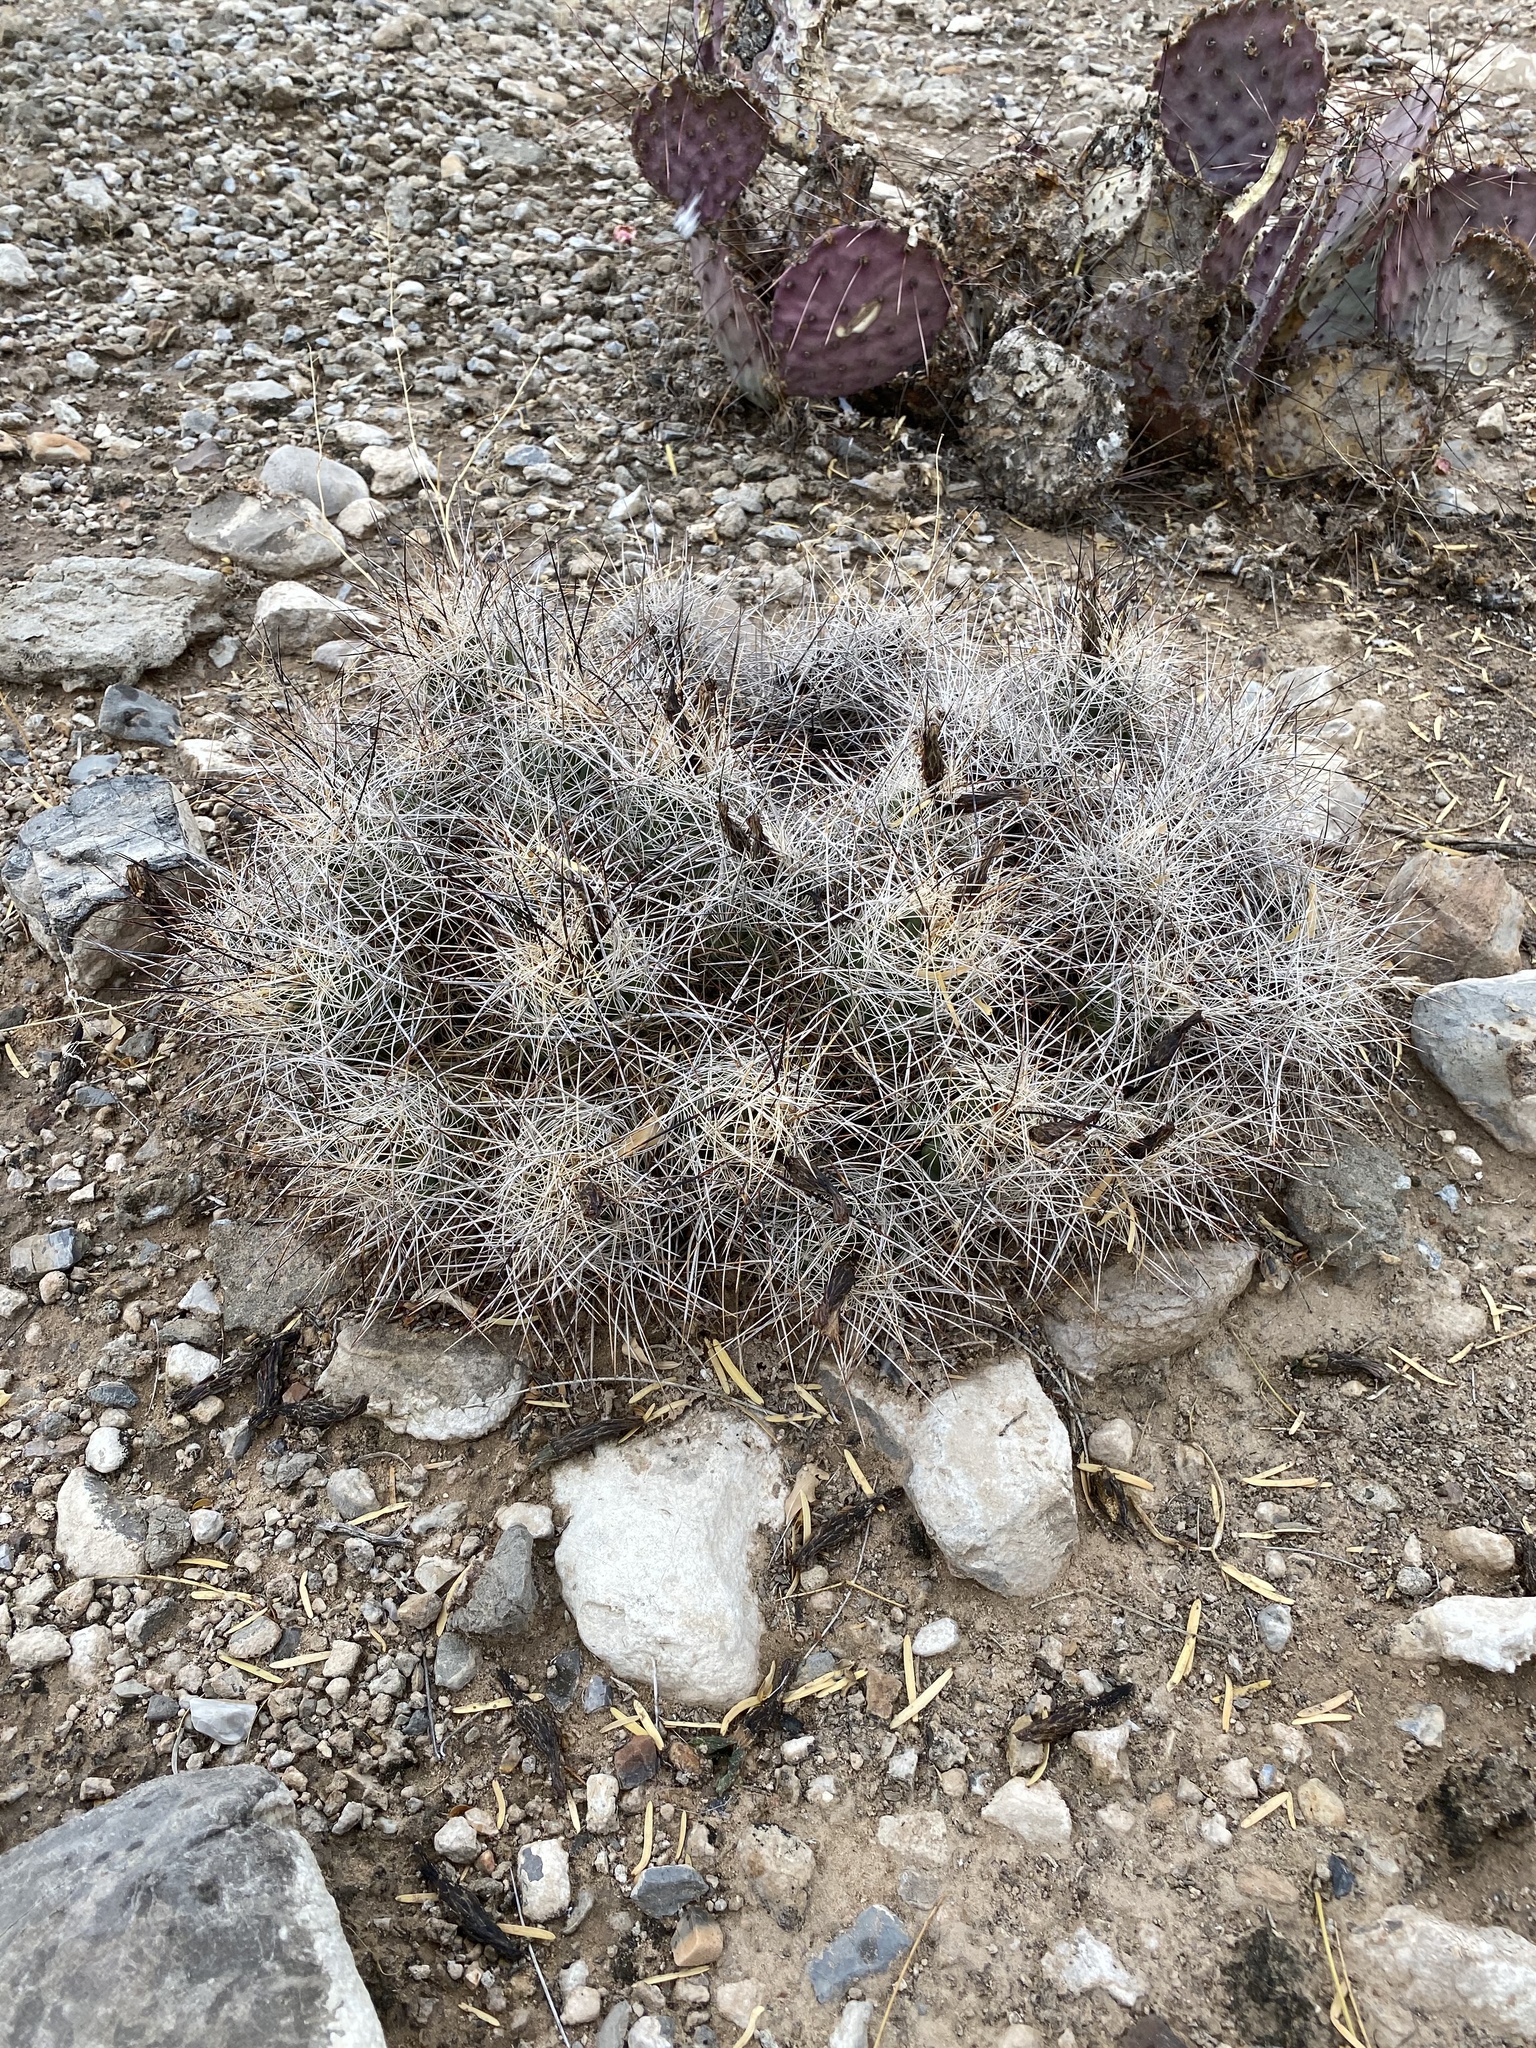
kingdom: Plantae
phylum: Tracheophyta
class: Magnoliopsida
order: Caryophyllales
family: Cactaceae
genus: Coryphantha
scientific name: Coryphantha macromeris
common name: Nipple beehive cactus
